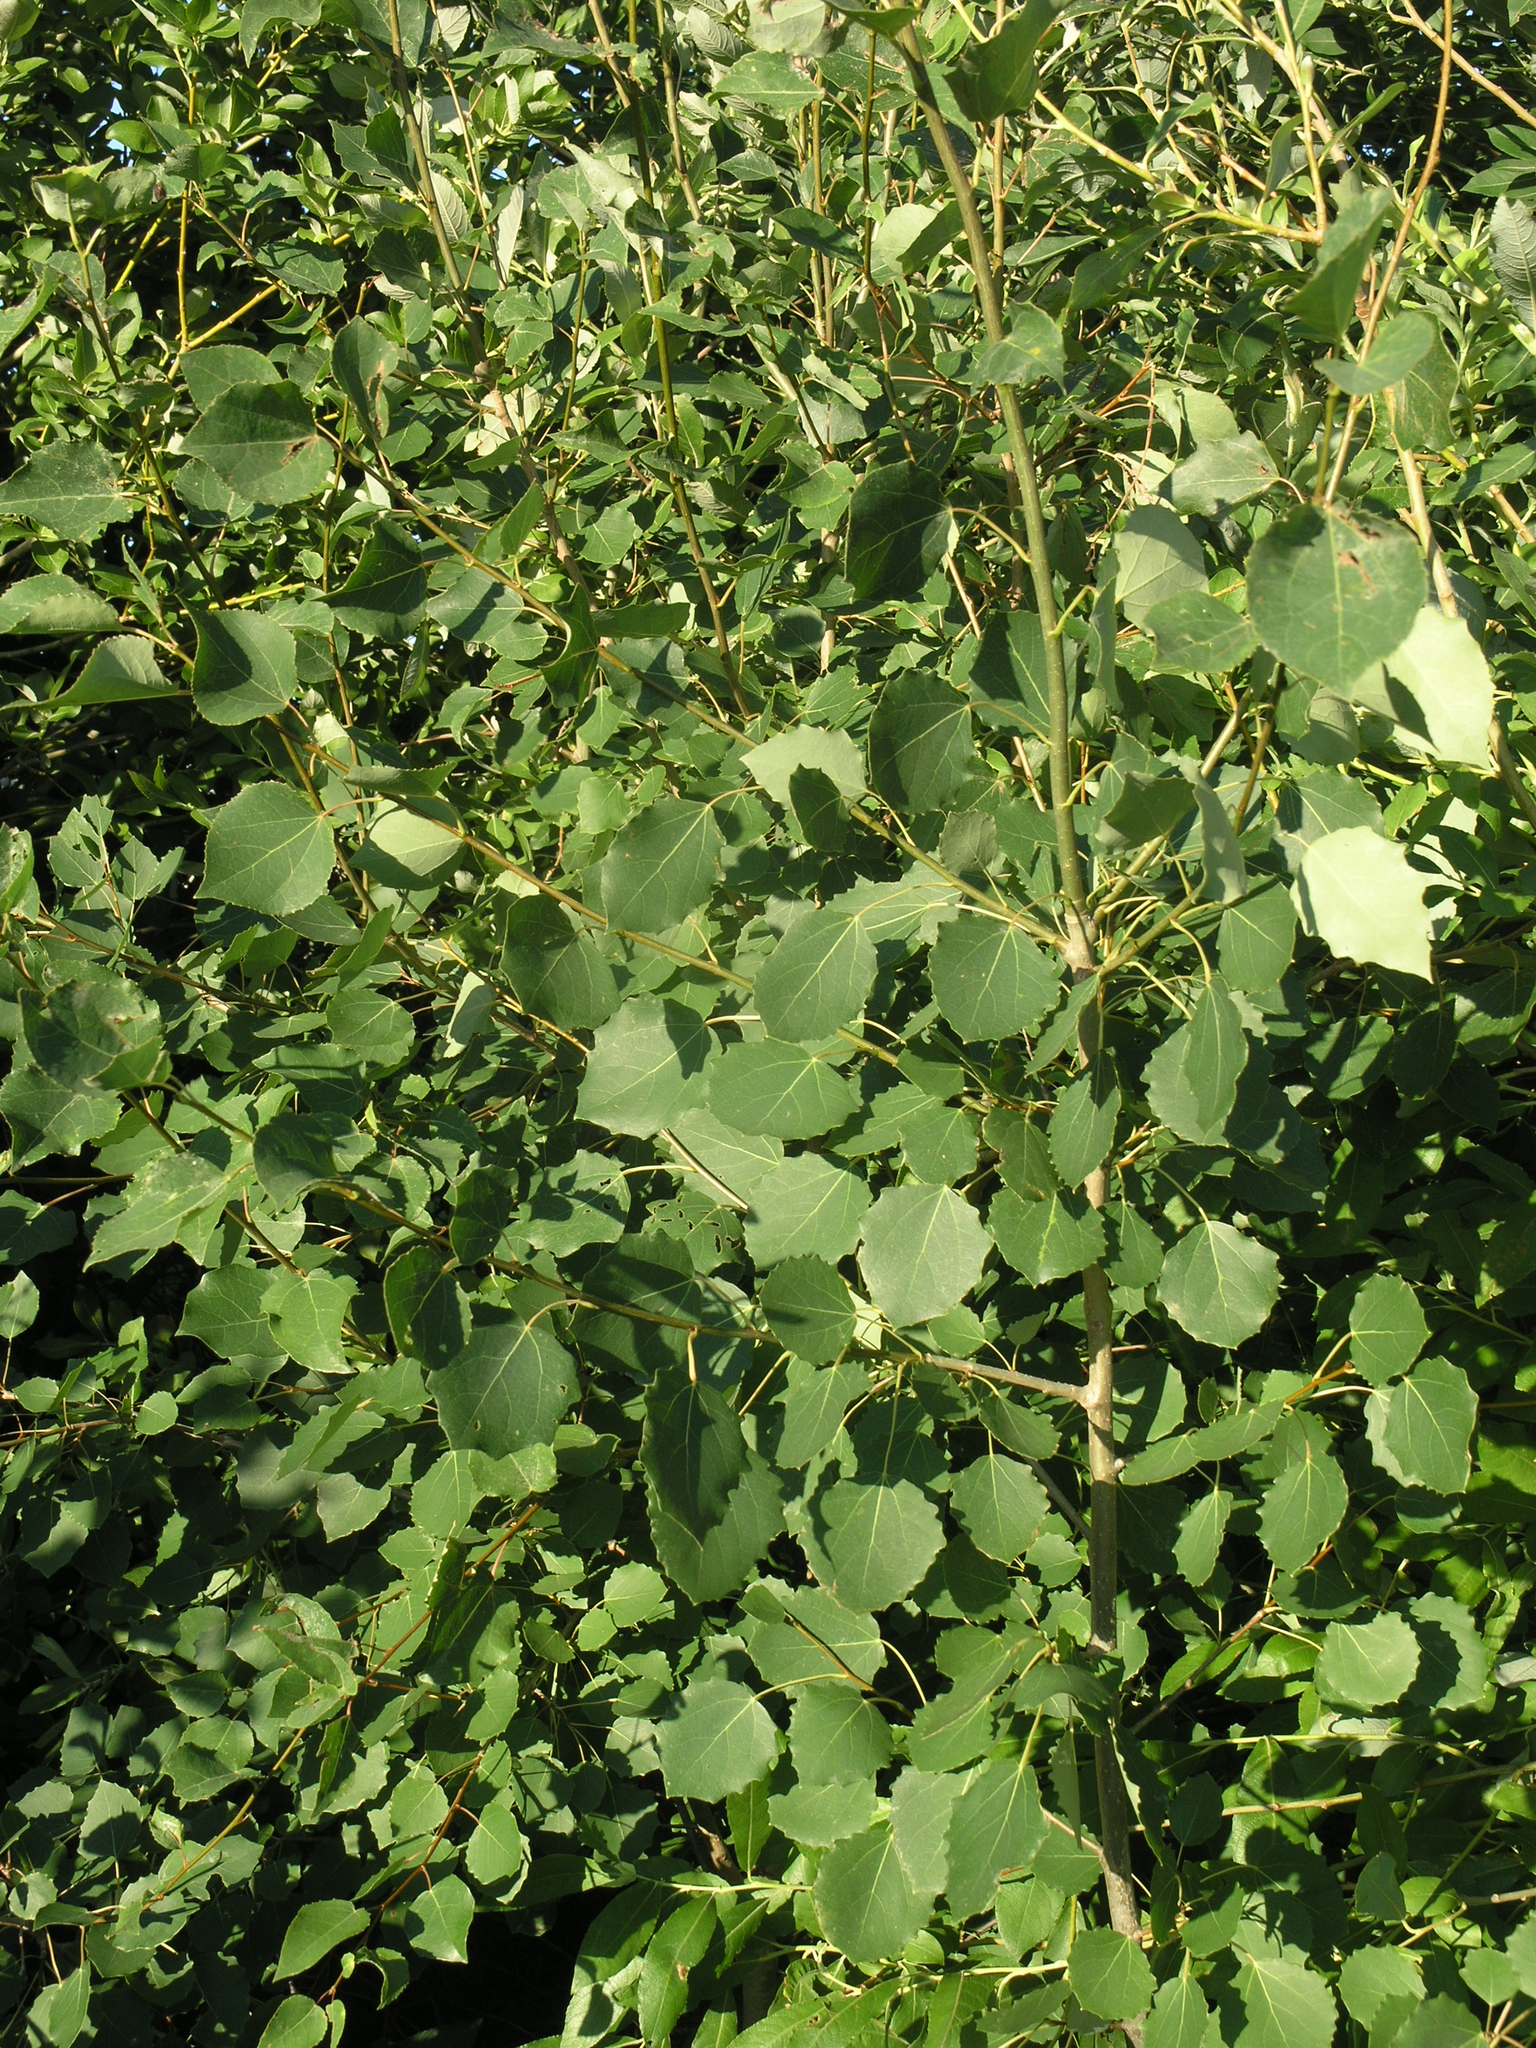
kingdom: Plantae
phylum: Tracheophyta
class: Magnoliopsida
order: Malpighiales
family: Salicaceae
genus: Populus
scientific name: Populus tremula
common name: European aspen
